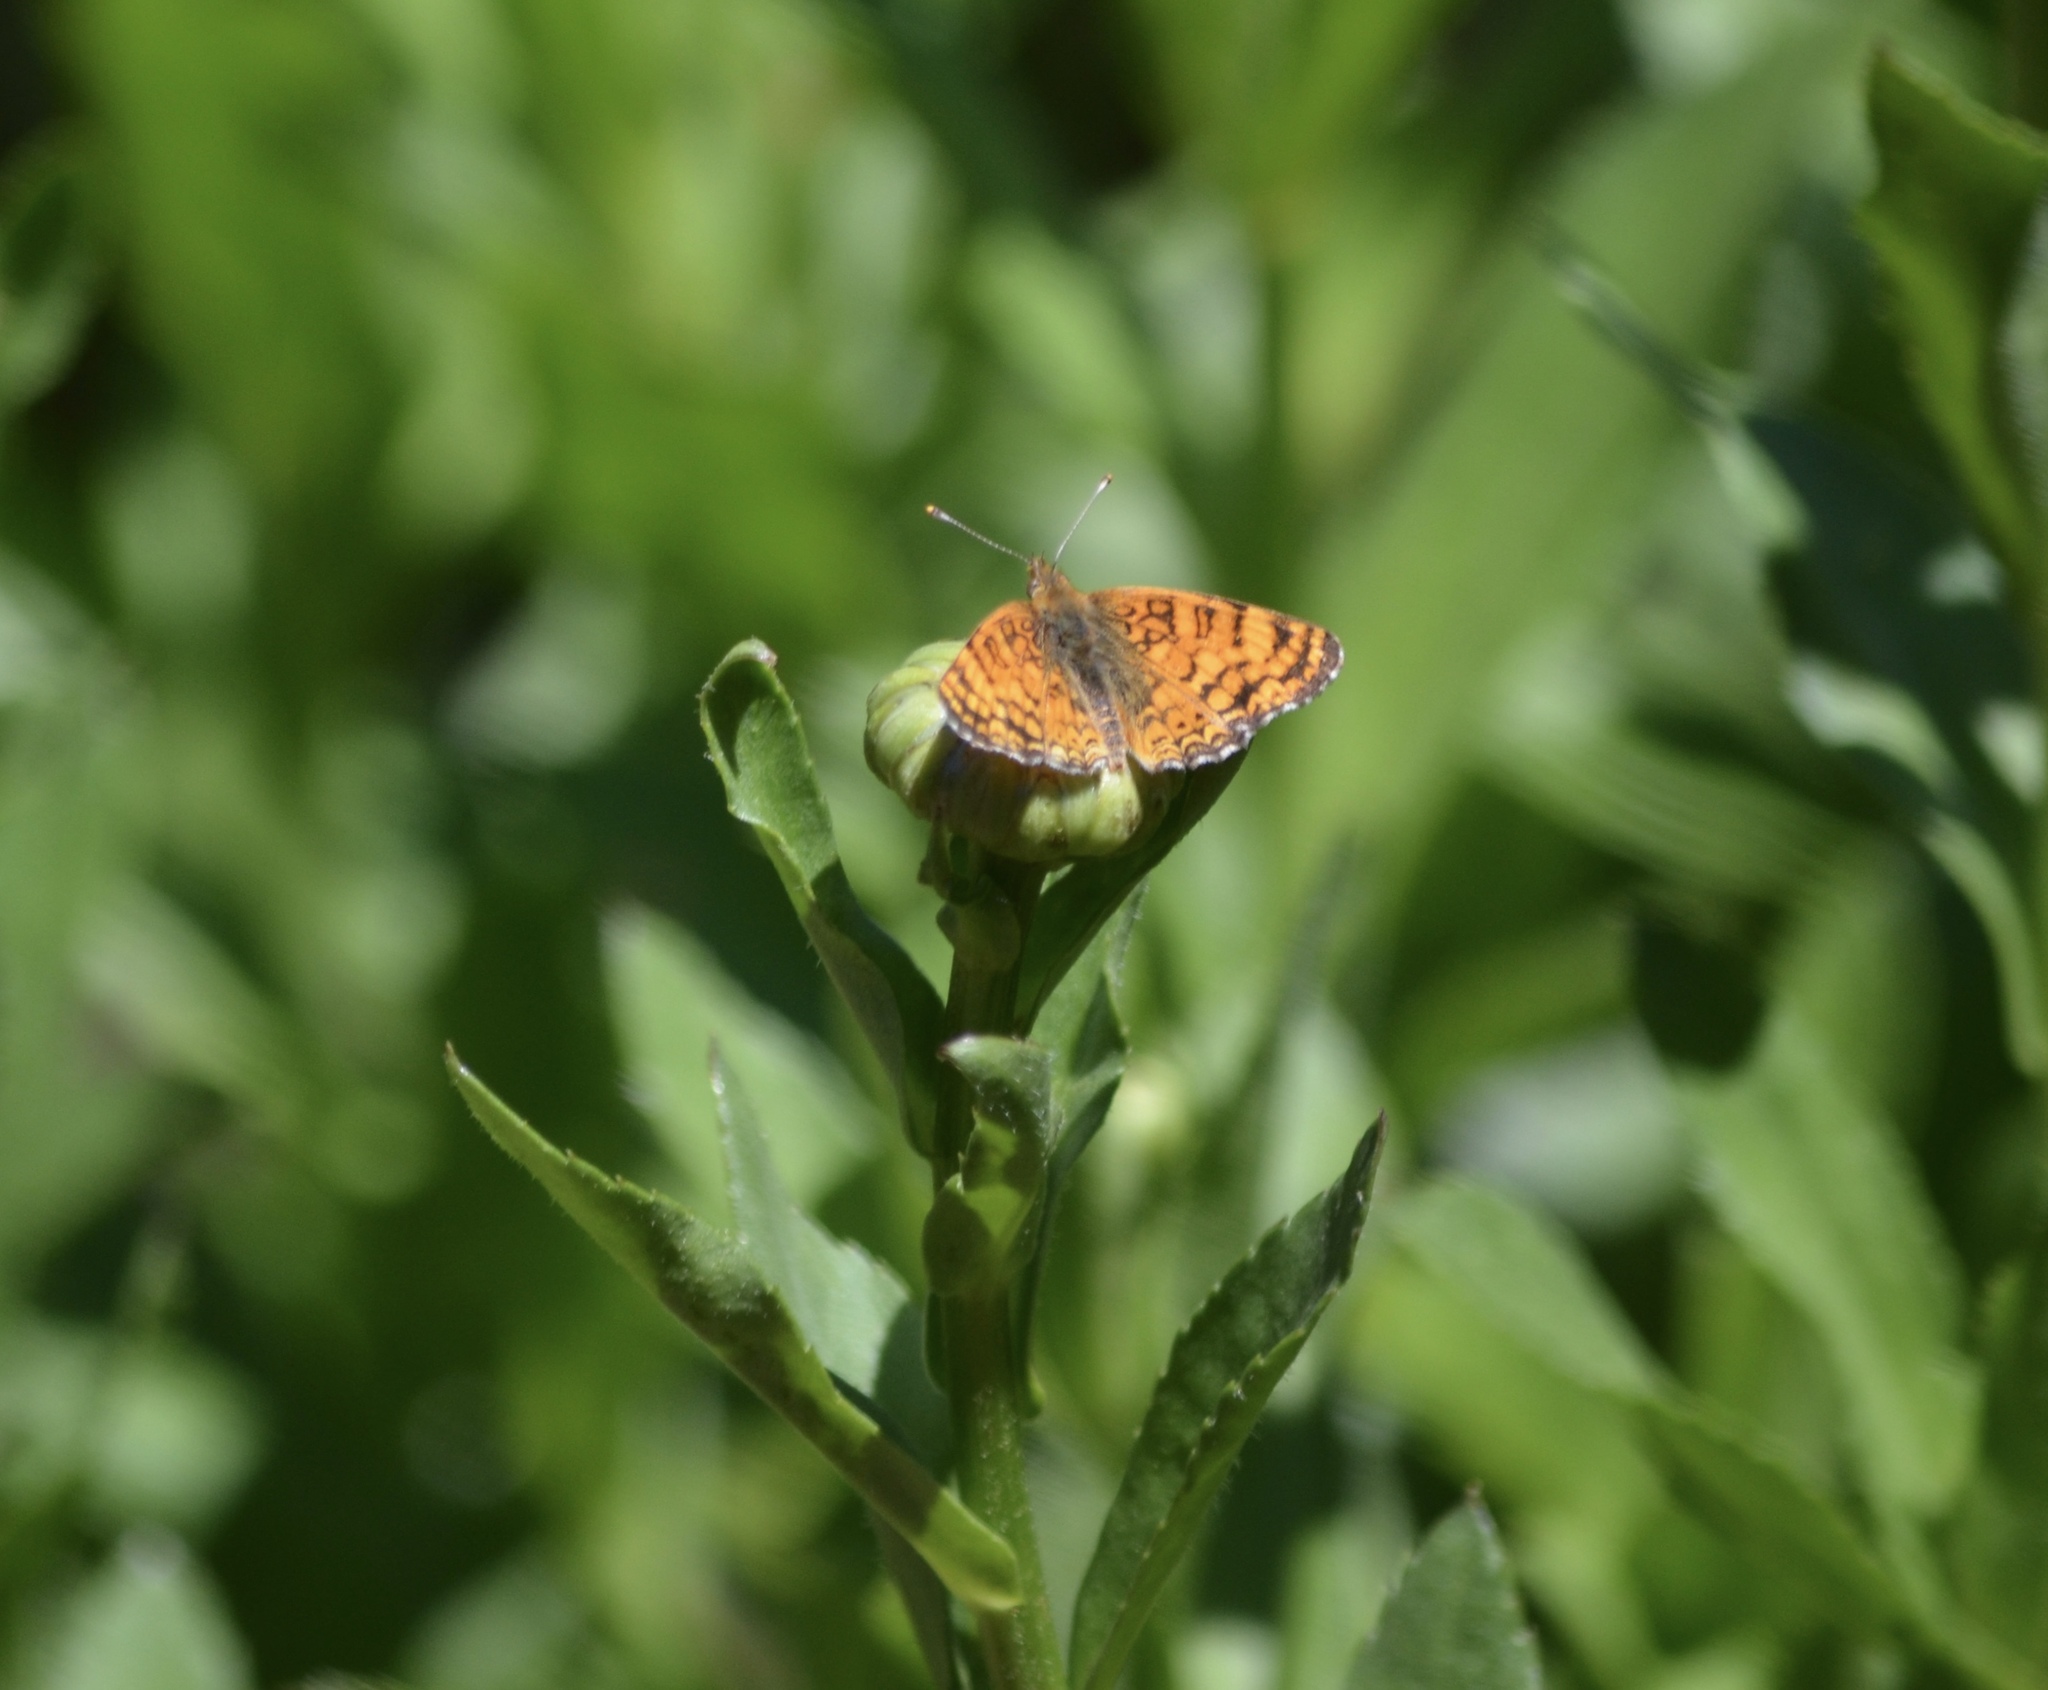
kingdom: Animalia
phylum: Arthropoda
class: Insecta
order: Lepidoptera
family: Nymphalidae
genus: Eresia
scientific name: Eresia aveyrona
